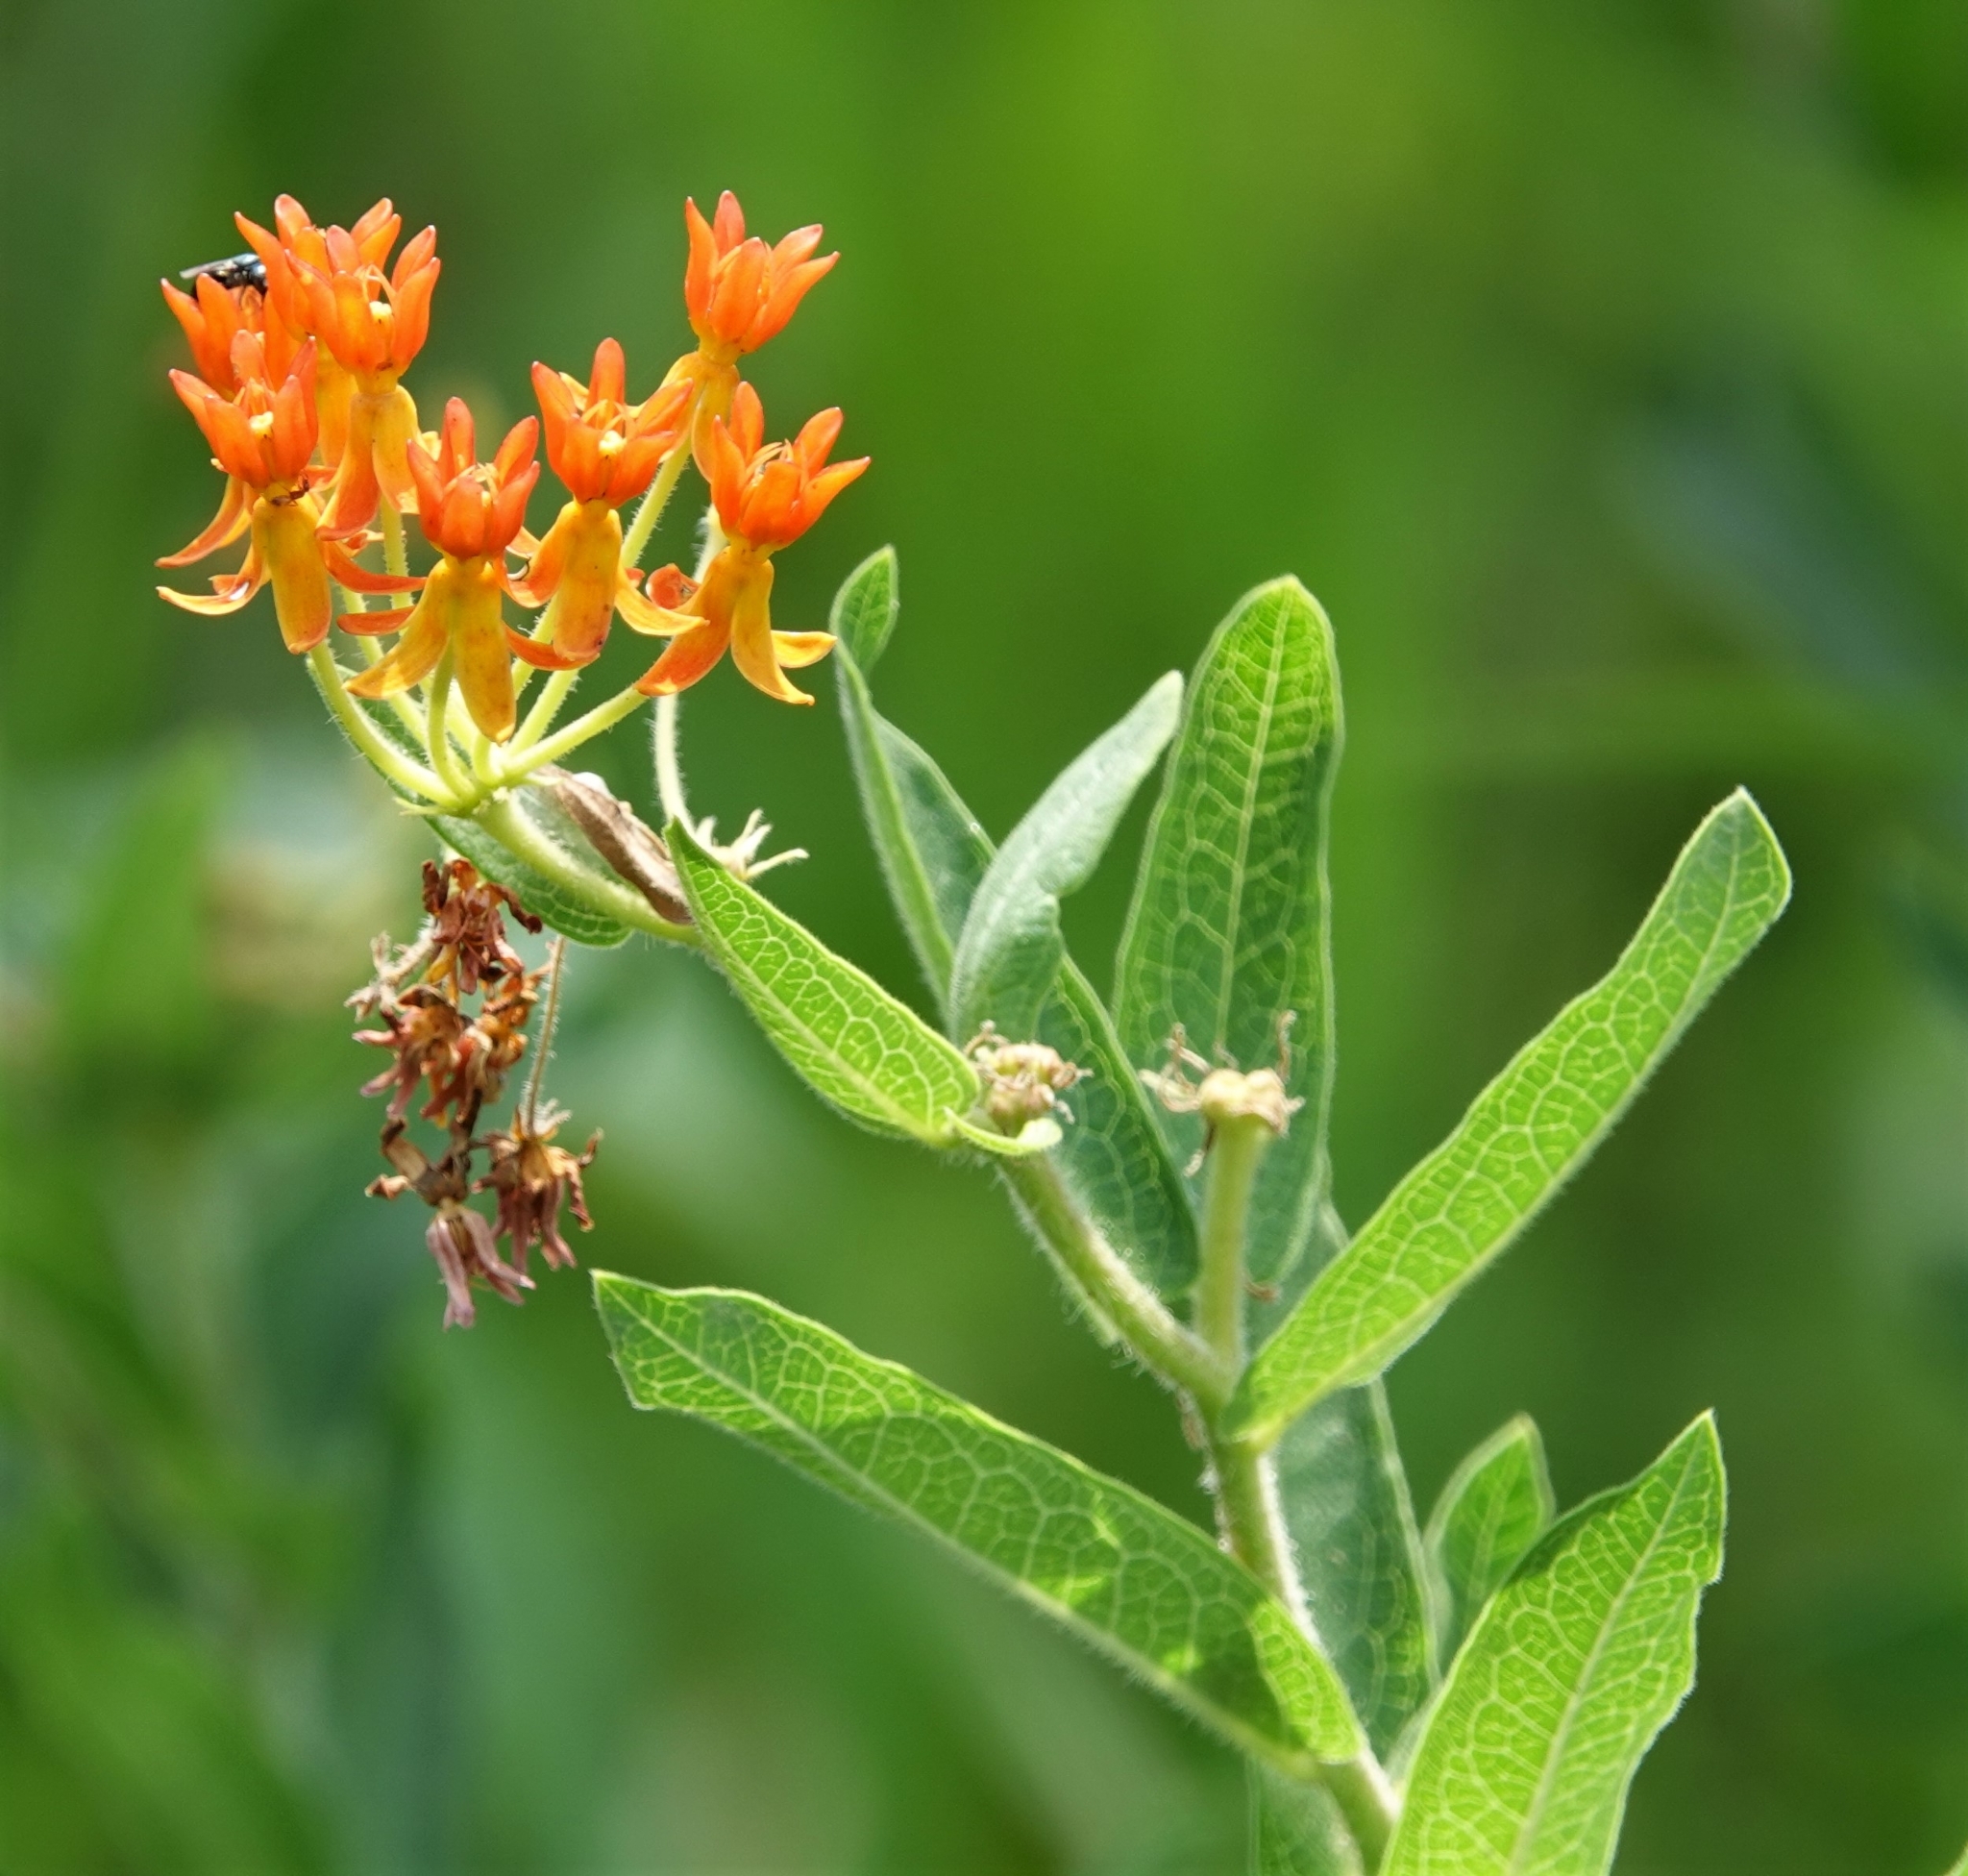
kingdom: Plantae
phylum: Tracheophyta
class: Magnoliopsida
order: Gentianales
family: Apocynaceae
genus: Asclepias
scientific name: Asclepias tuberosa
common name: Butterfly milkweed
